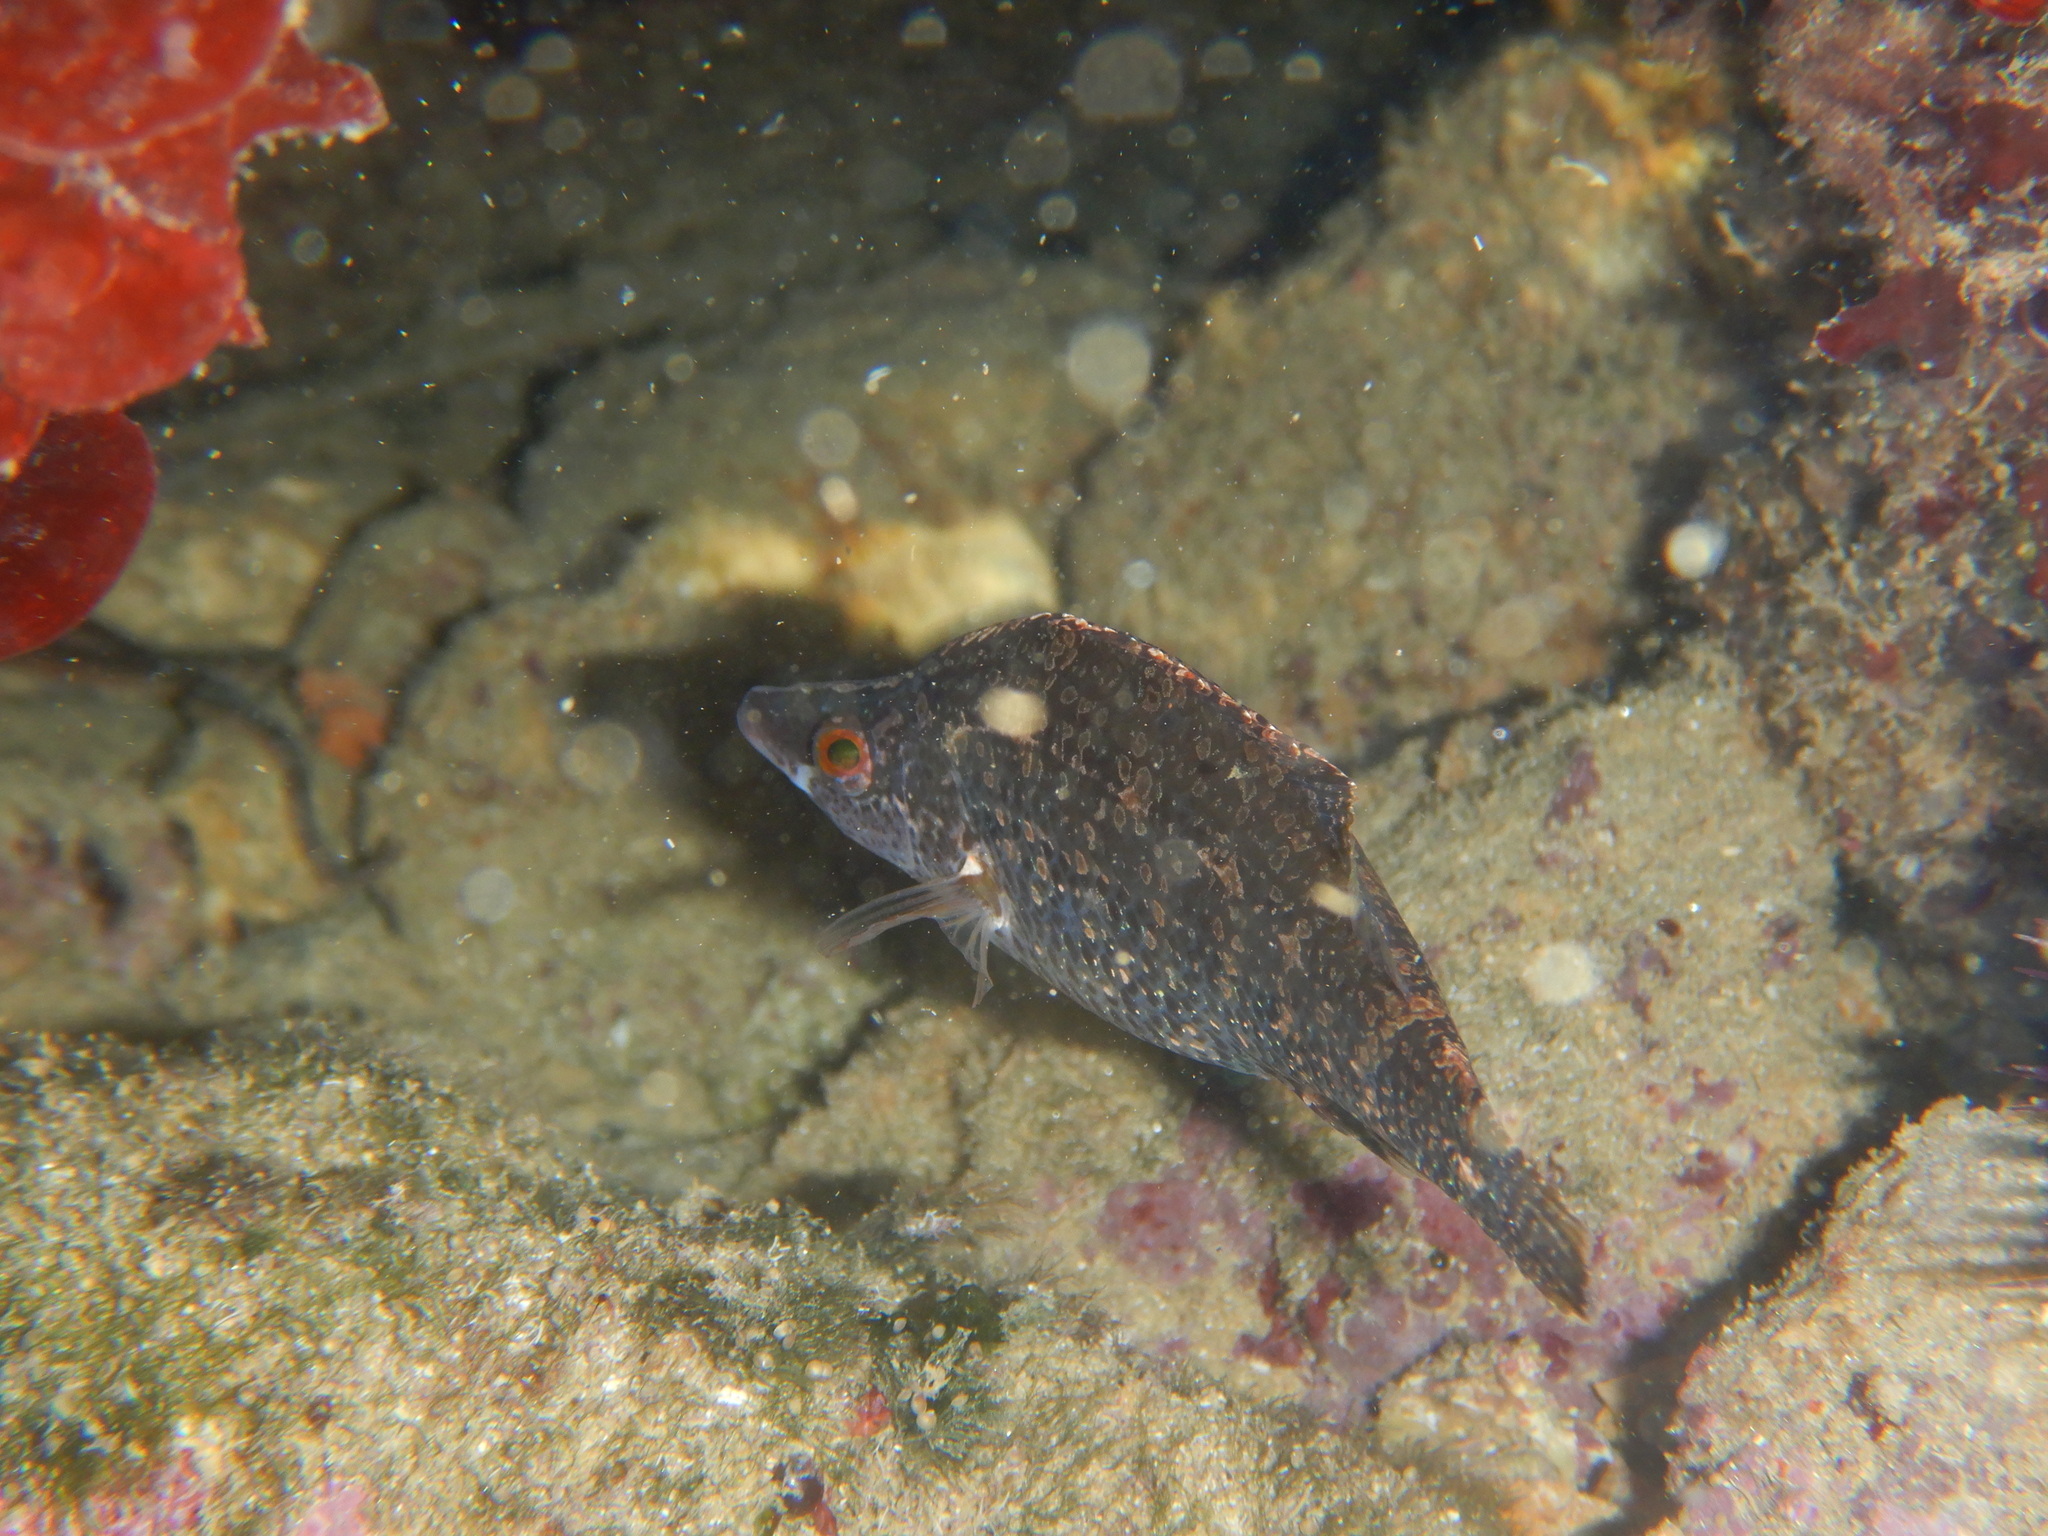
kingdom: Animalia
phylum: Chordata
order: Perciformes
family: Labridae
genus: Symphodus
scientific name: Symphodus rostratus
